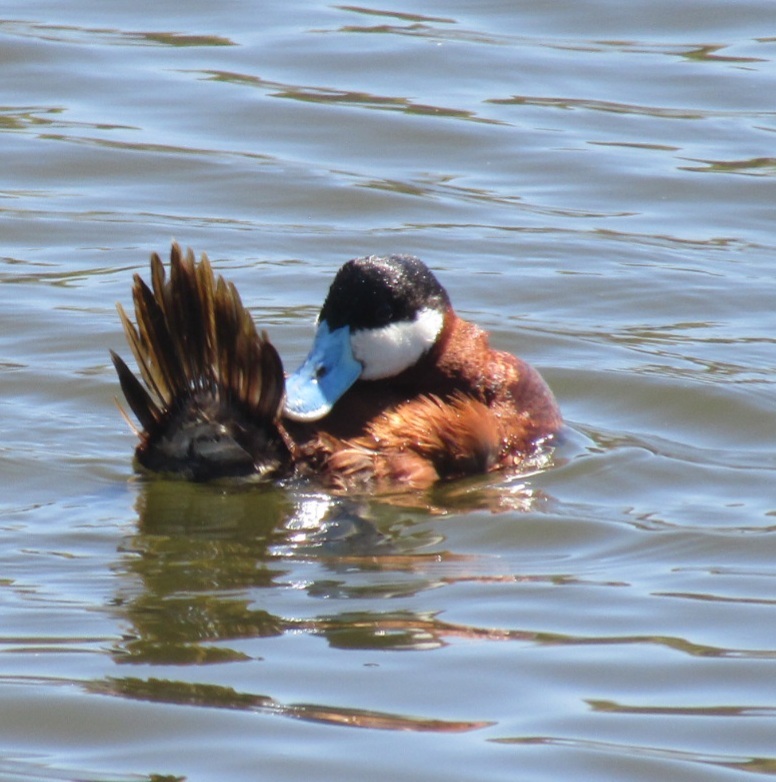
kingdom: Animalia
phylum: Chordata
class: Aves
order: Anseriformes
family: Anatidae
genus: Oxyura
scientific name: Oxyura jamaicensis
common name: Ruddy duck
